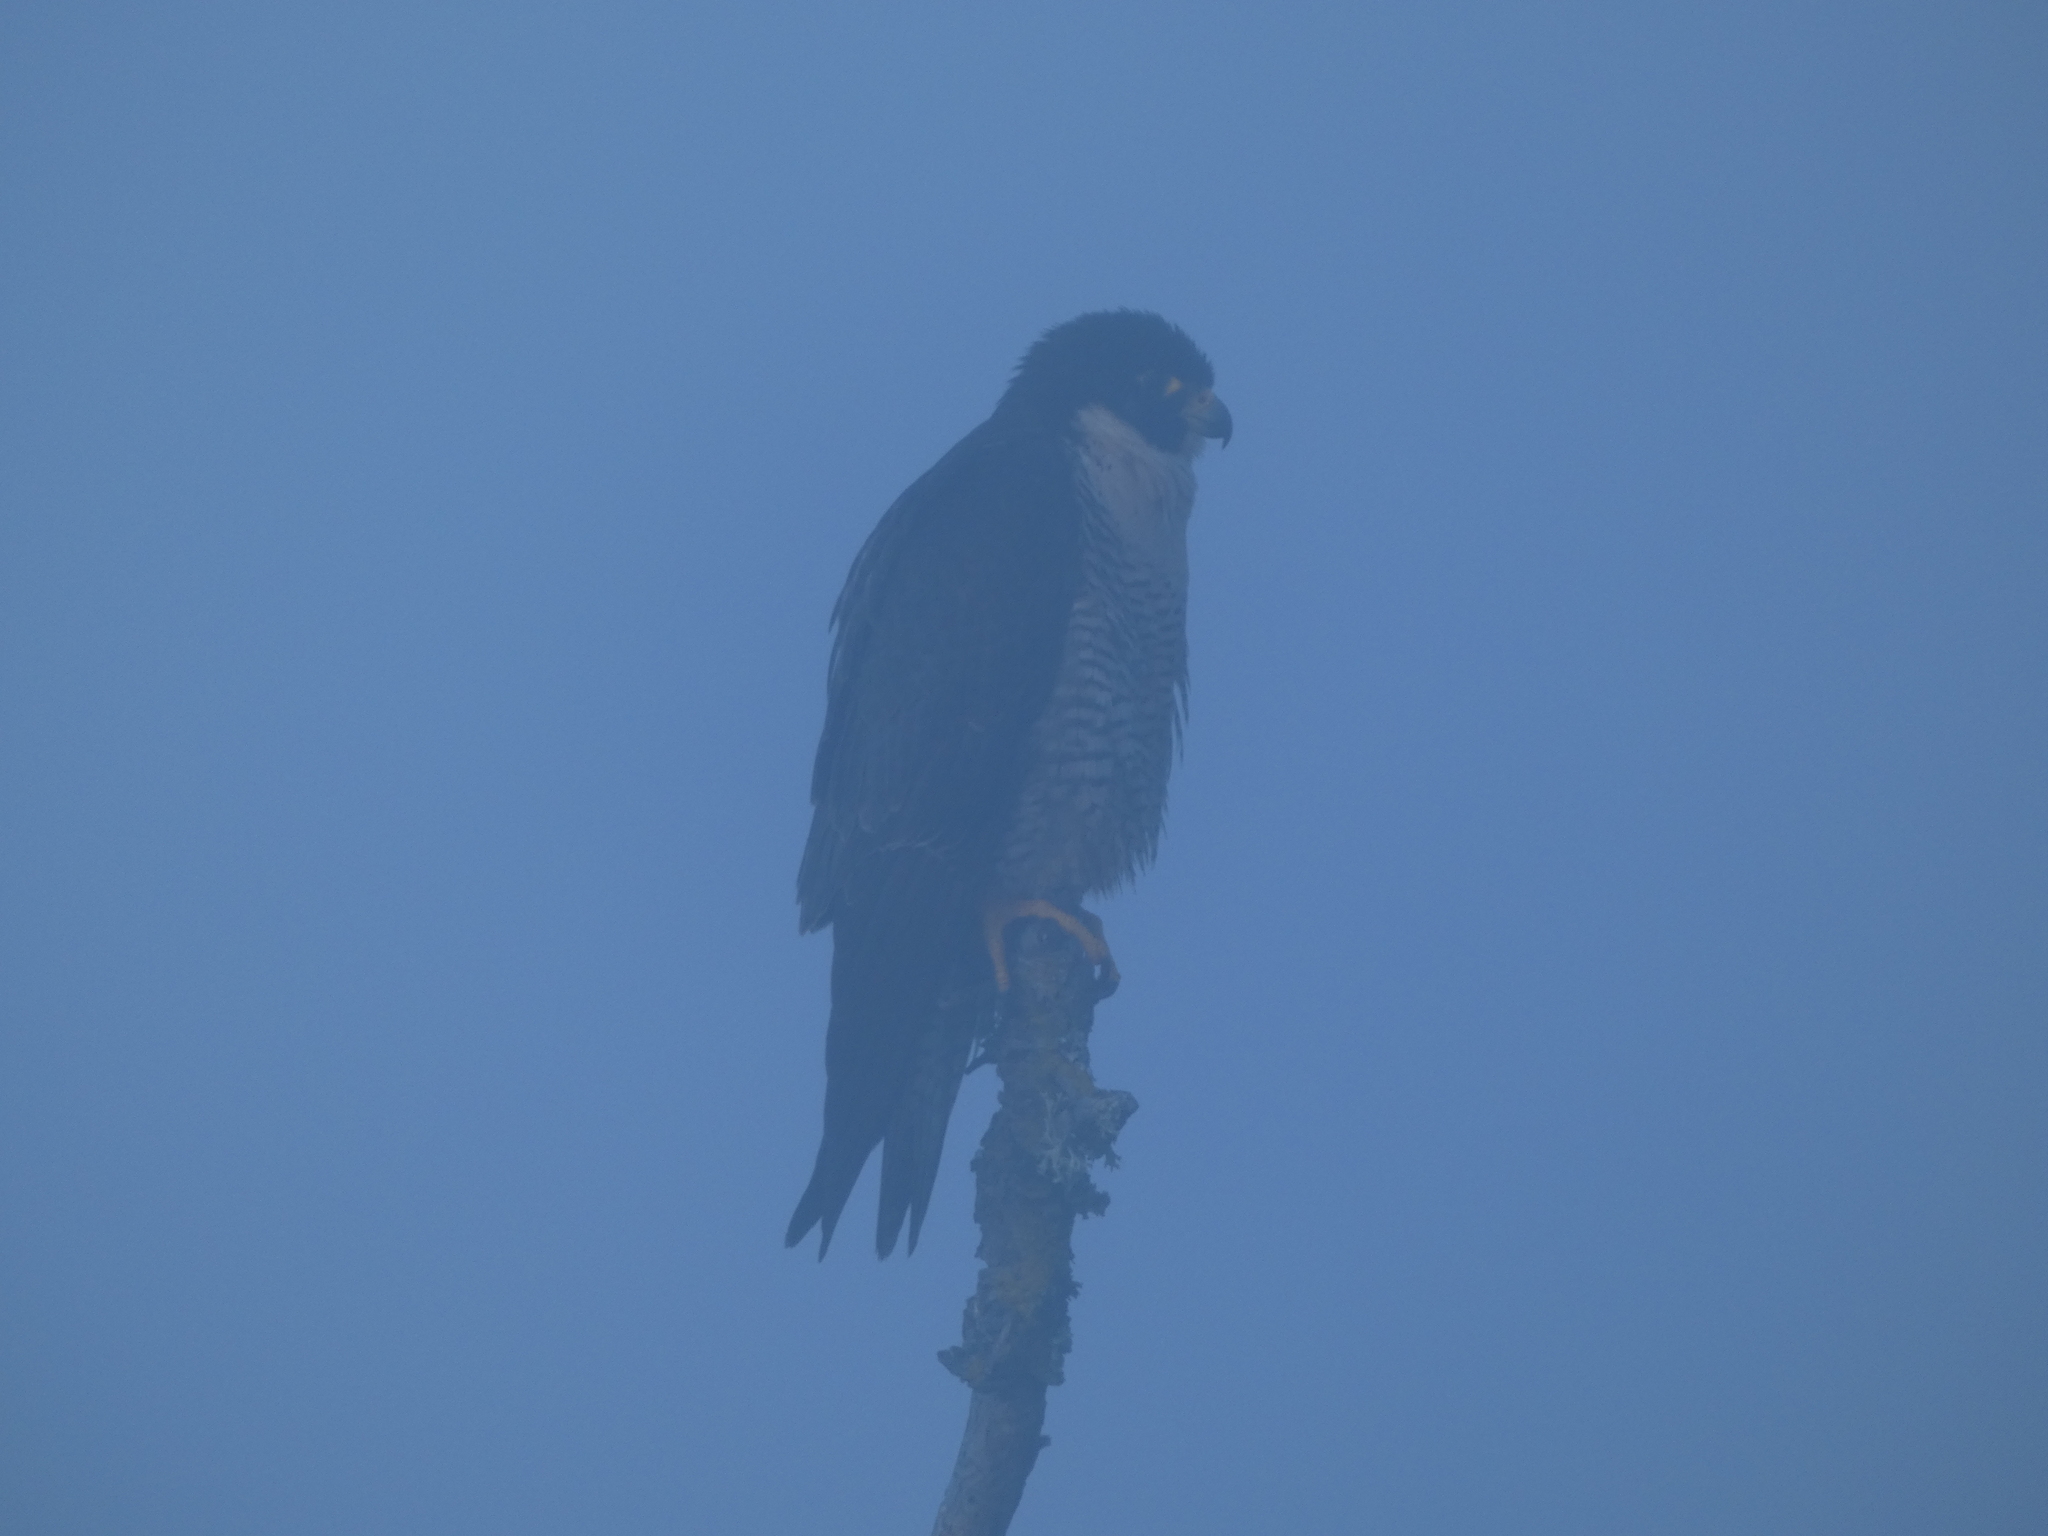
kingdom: Animalia
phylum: Chordata
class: Aves
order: Falconiformes
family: Falconidae
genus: Falco
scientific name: Falco peregrinus
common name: Peregrine falcon
